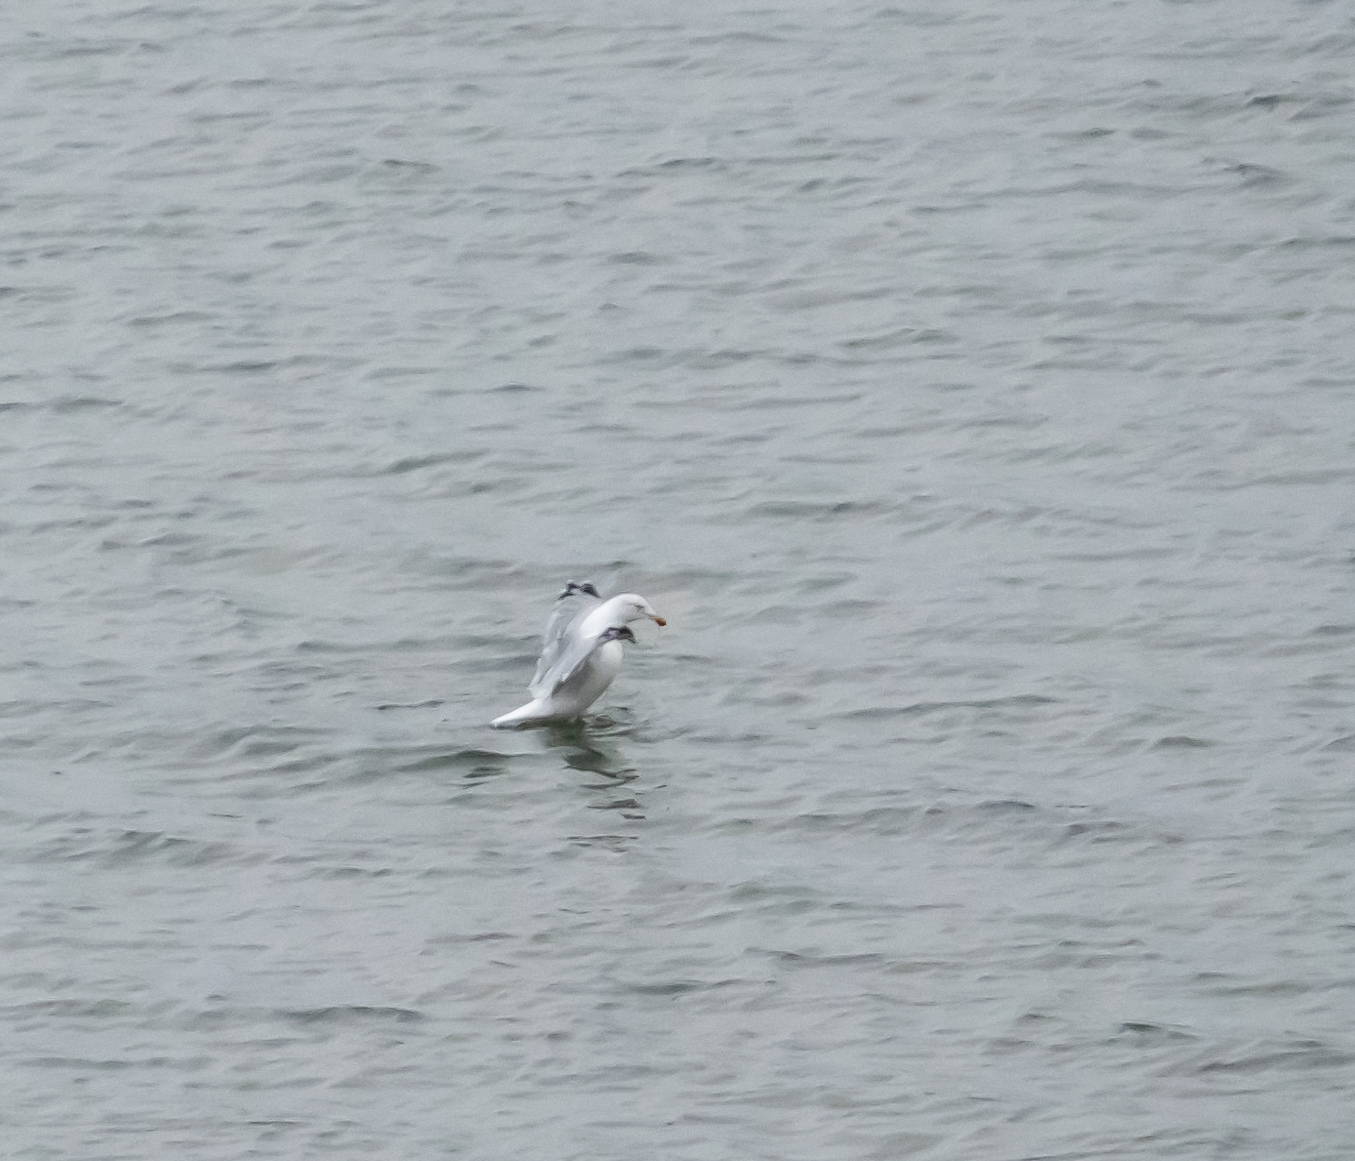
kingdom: Animalia
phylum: Chordata
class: Aves
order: Charadriiformes
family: Laridae
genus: Larus
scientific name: Larus argentatus
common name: Herring gull
